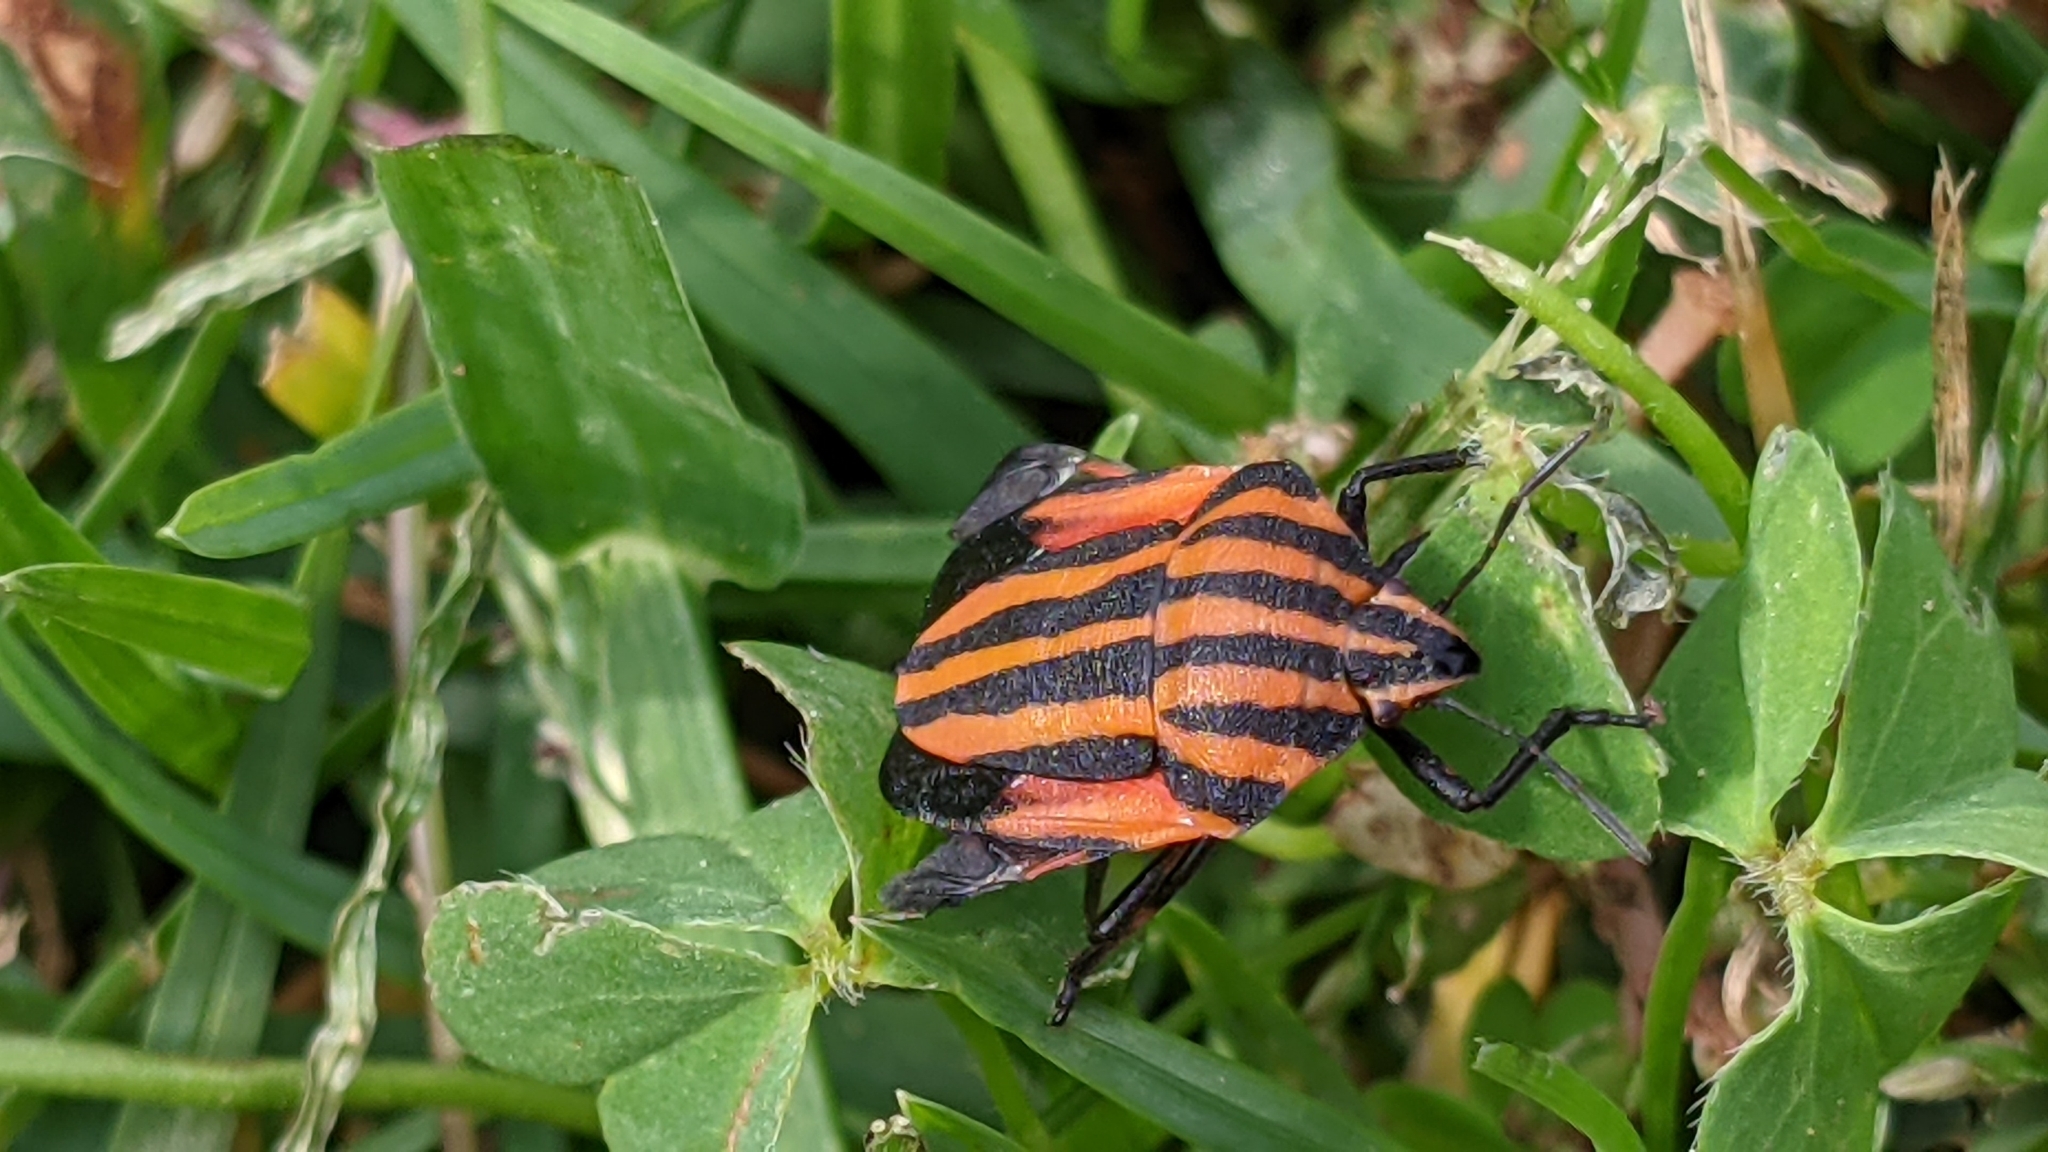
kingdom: Animalia
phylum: Arthropoda
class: Insecta
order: Hemiptera
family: Pentatomidae
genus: Graphosoma
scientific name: Graphosoma italicum
